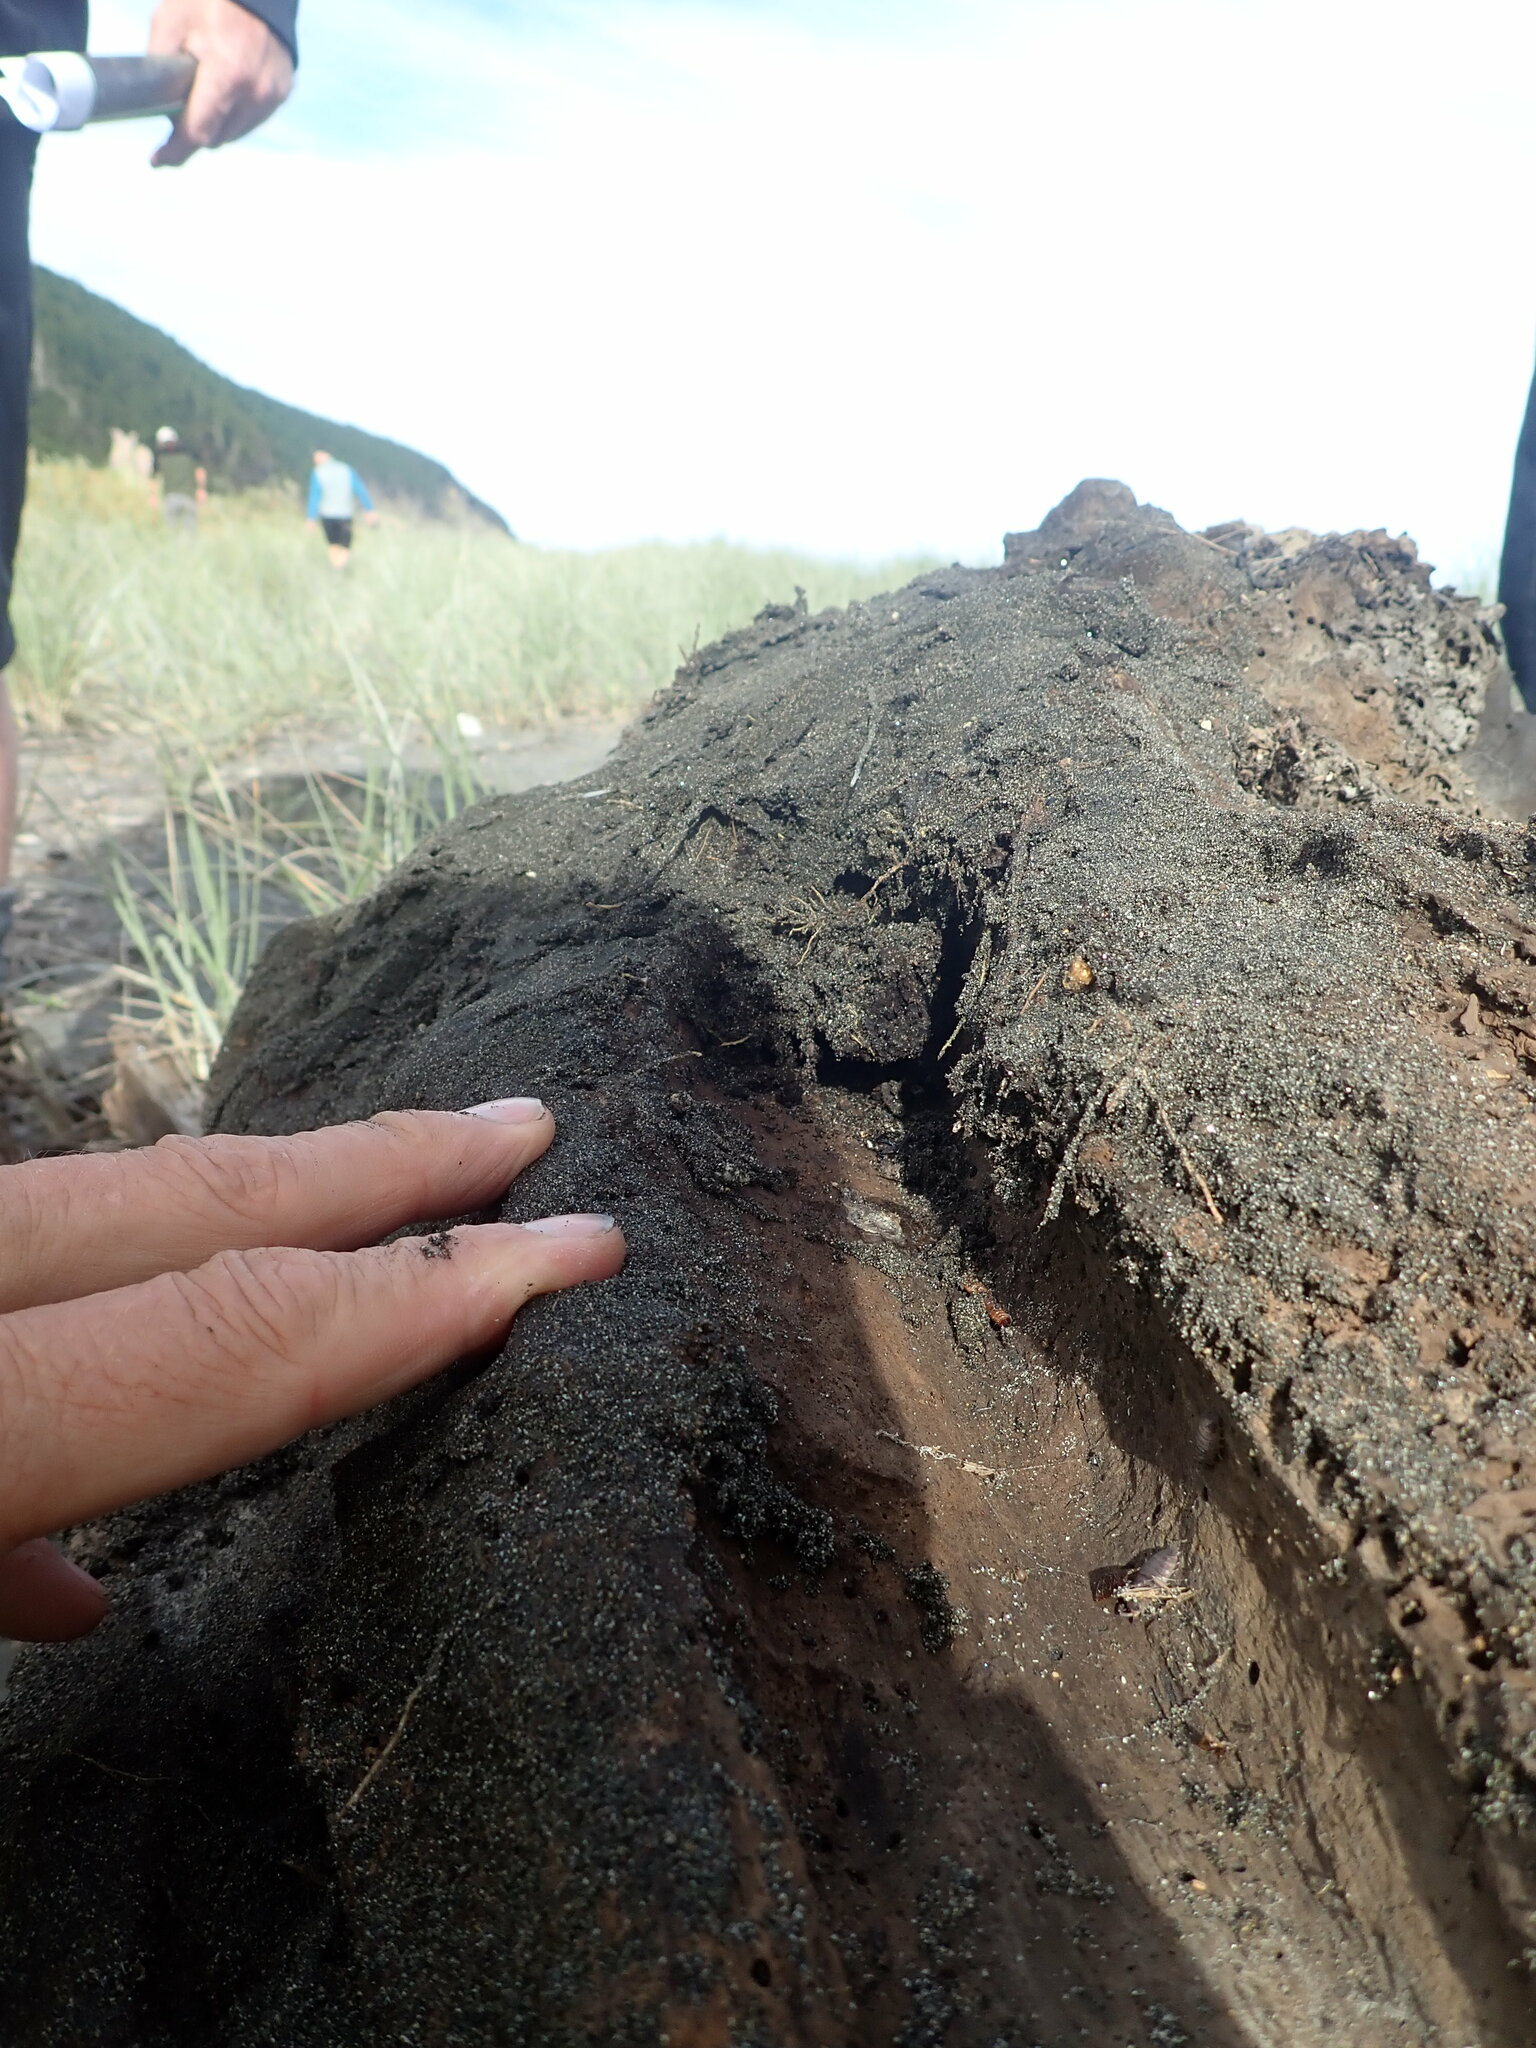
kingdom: Animalia
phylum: Arthropoda
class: Arachnida
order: Araneae
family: Theridiidae
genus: Steatoda
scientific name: Steatoda capensis
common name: Cobweb weaver
